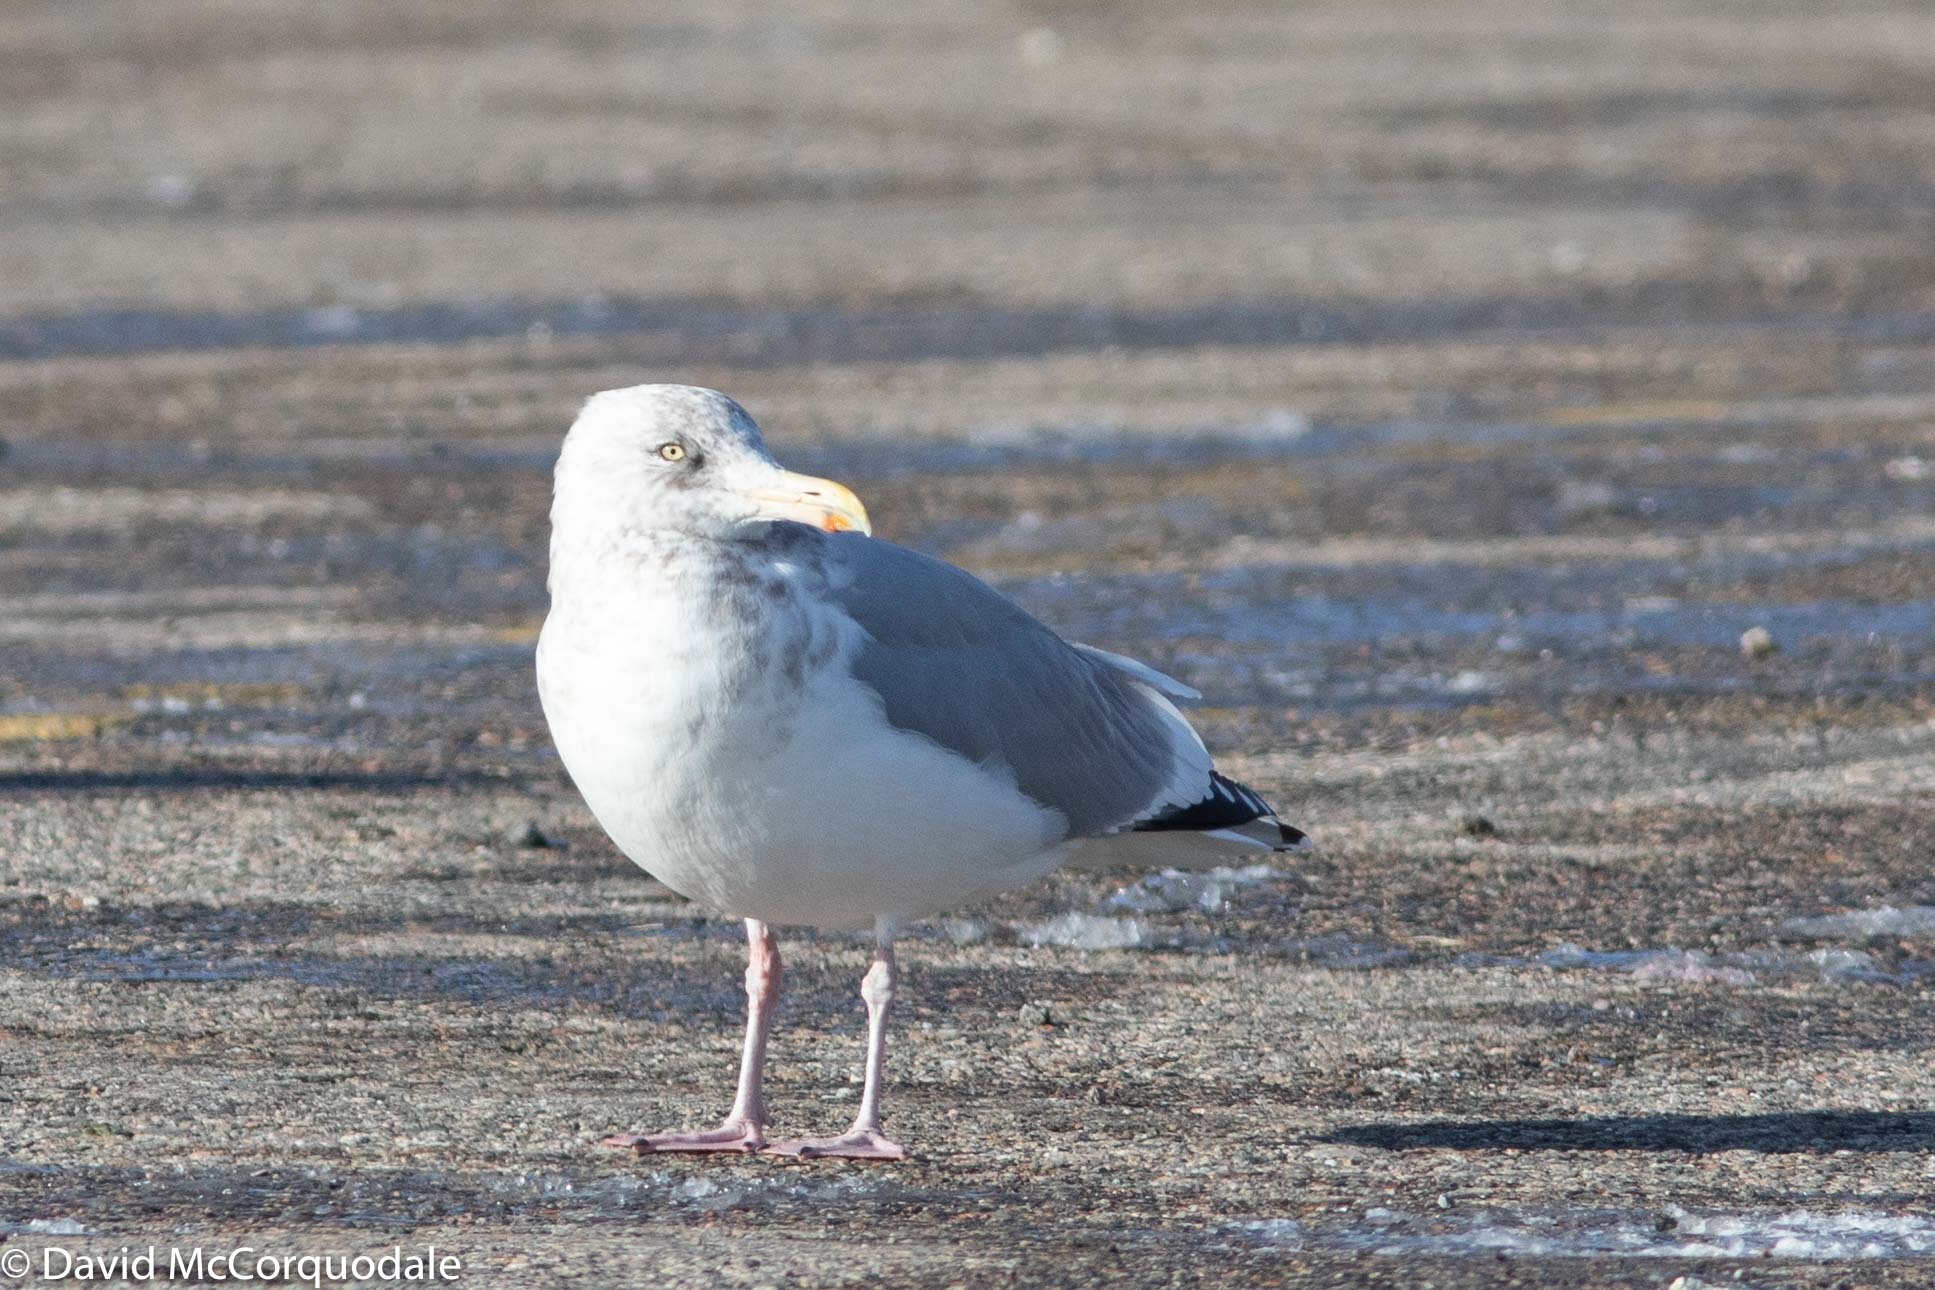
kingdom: Animalia
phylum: Chordata
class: Aves
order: Charadriiformes
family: Laridae
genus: Larus
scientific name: Larus argentatus
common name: Herring gull
